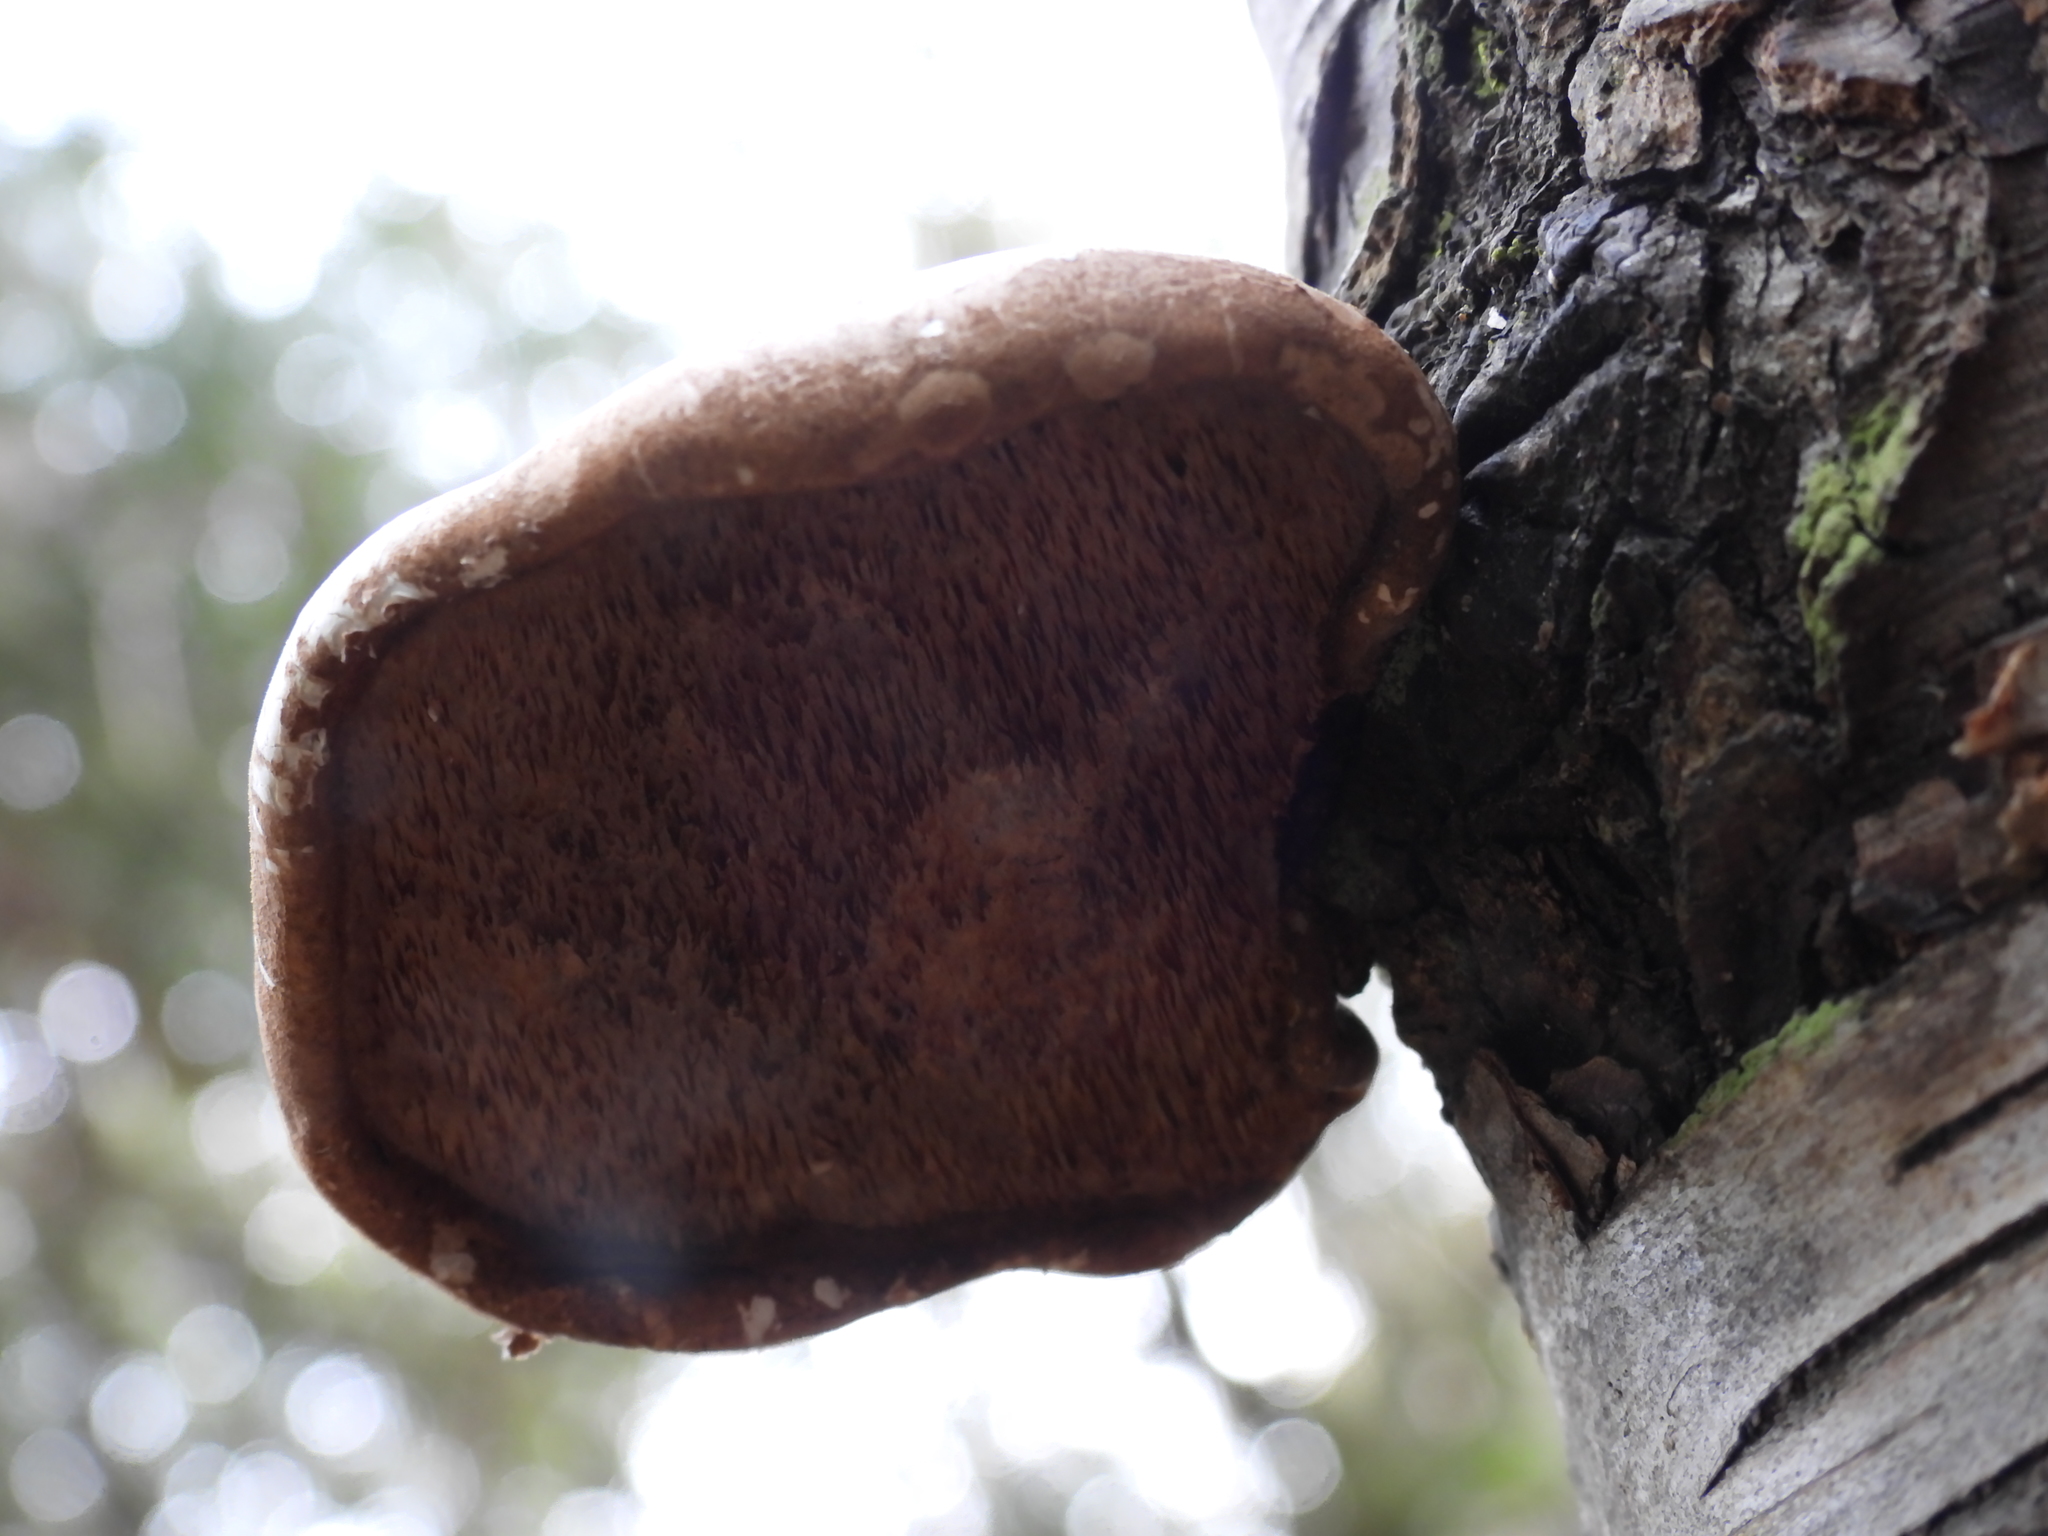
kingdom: Fungi
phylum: Basidiomycota
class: Agaricomycetes
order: Polyporales
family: Fomitopsidaceae
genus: Fomitopsis
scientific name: Fomitopsis betulina
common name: Birch polypore
